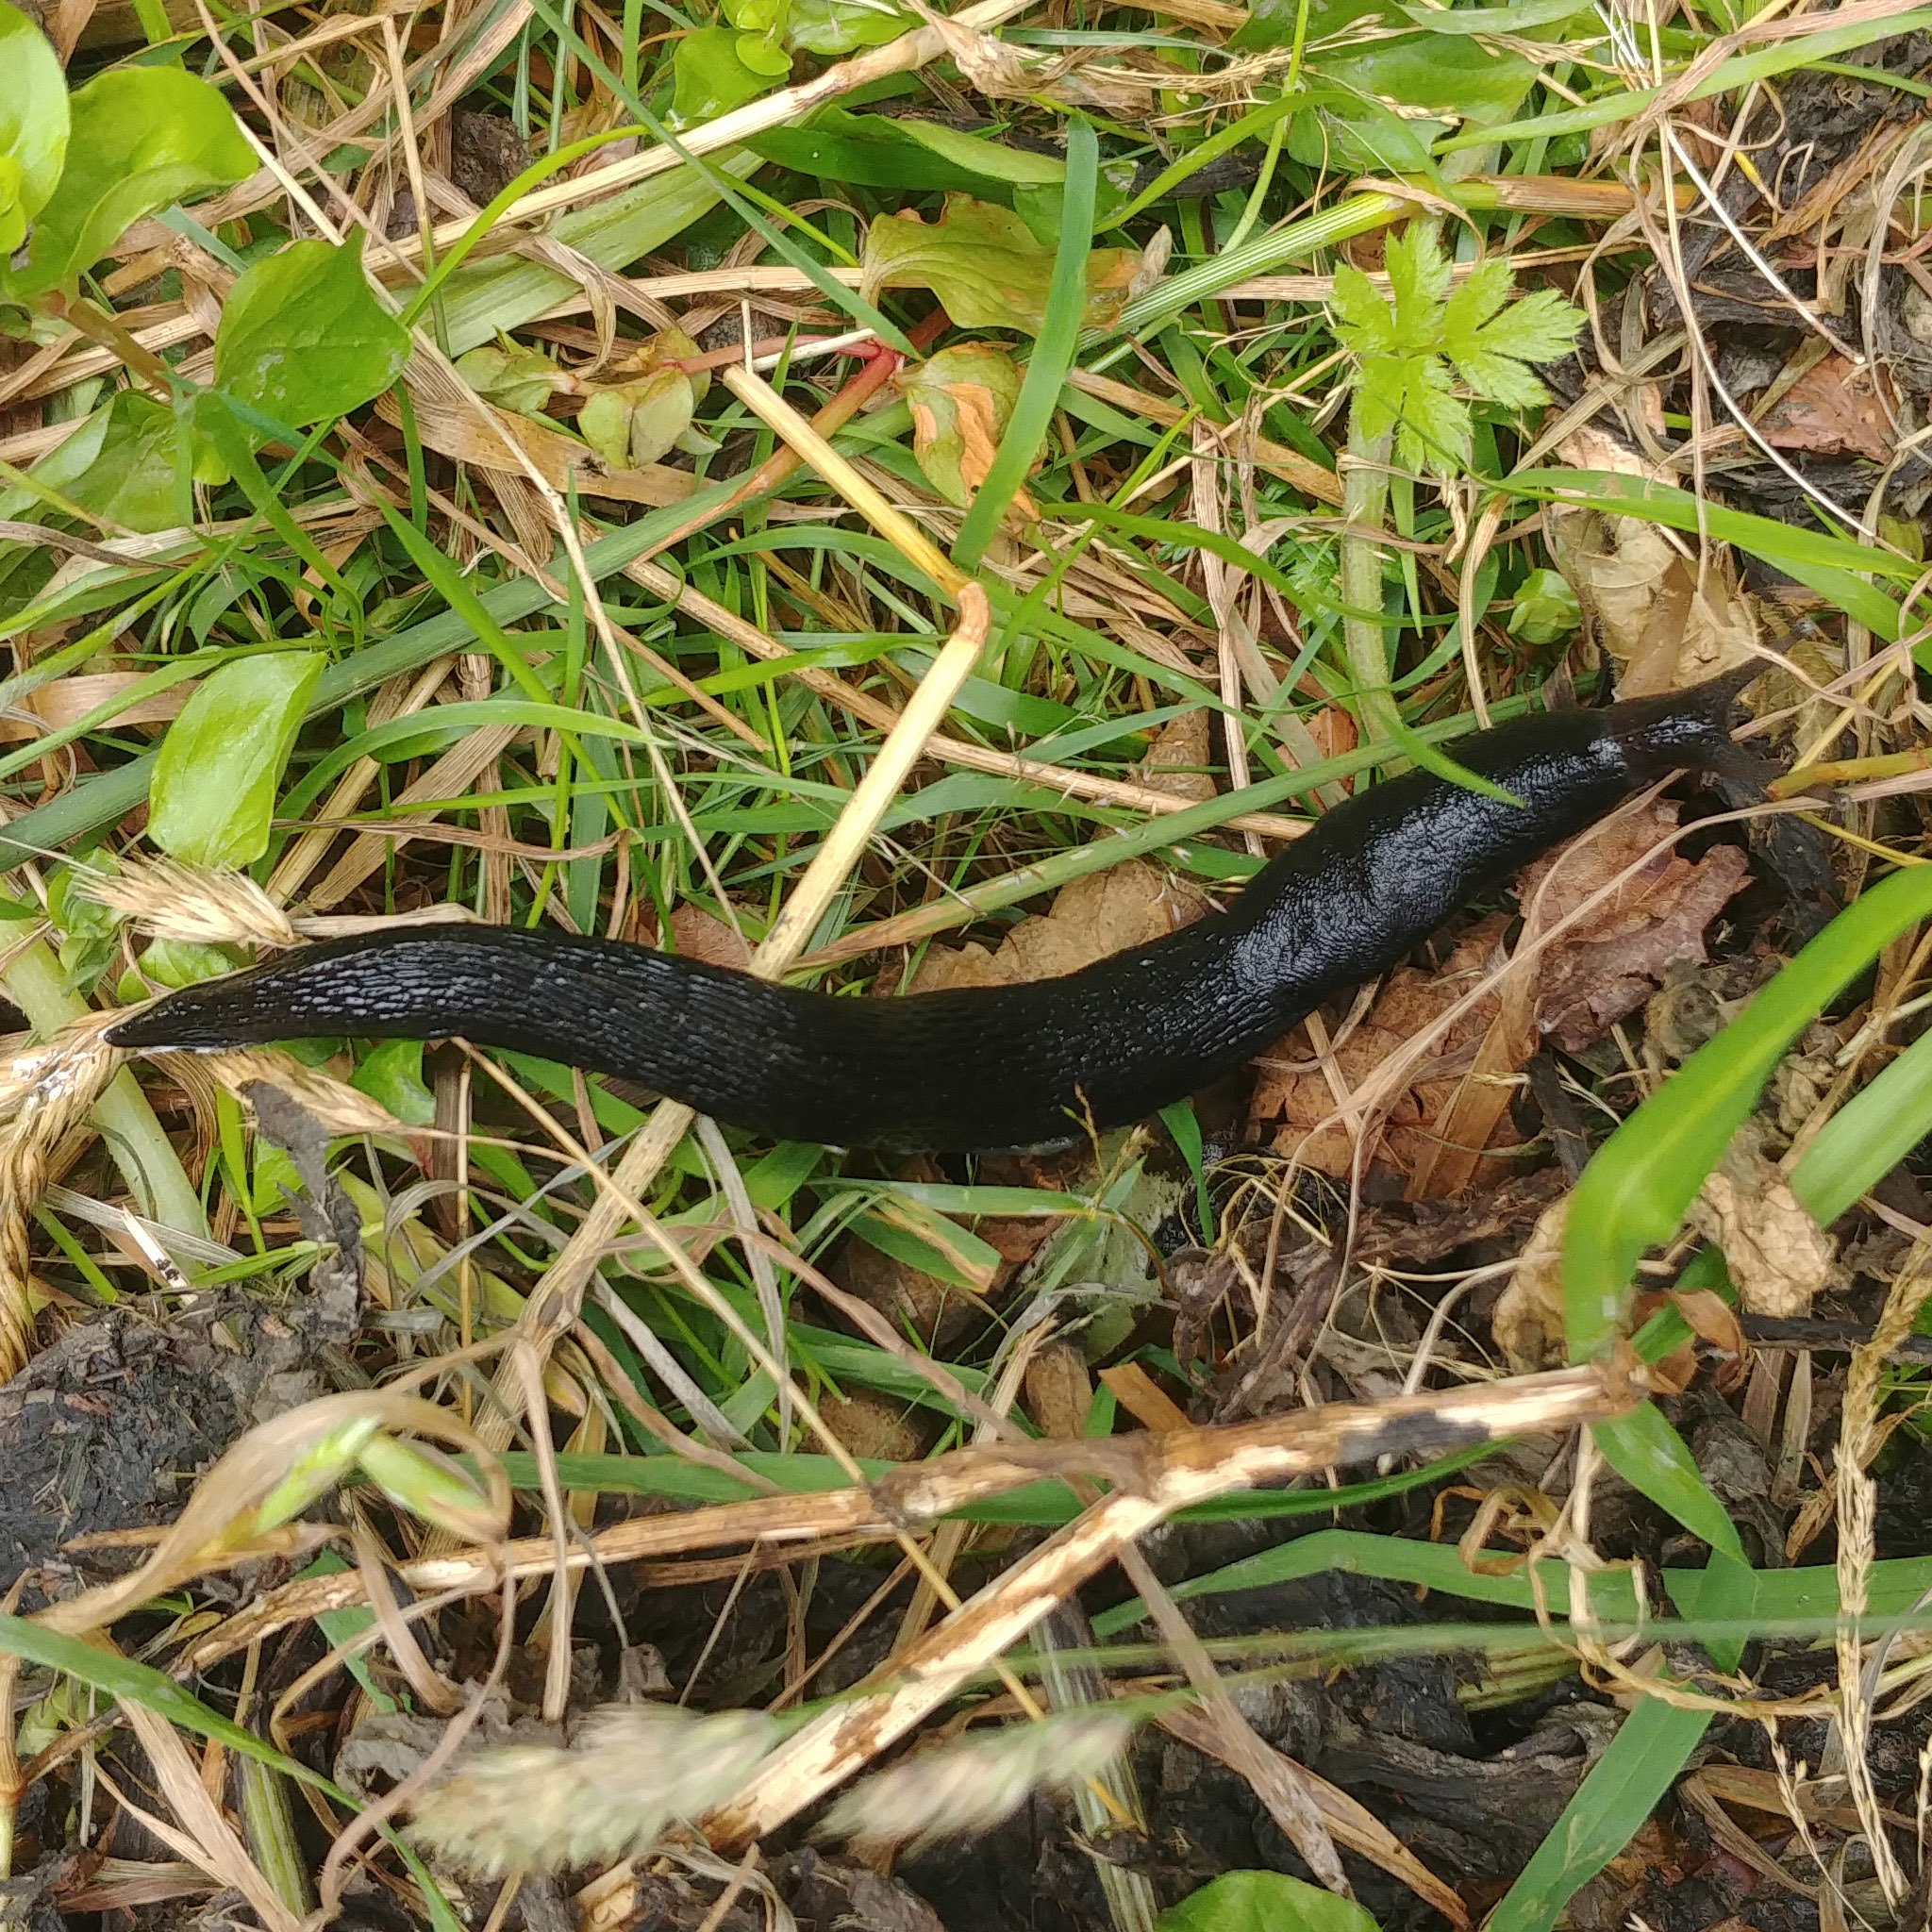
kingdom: Animalia
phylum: Mollusca
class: Gastropoda
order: Stylommatophora
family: Limacidae
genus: Limax
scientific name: Limax cinereoniger
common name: Ash-black slug
